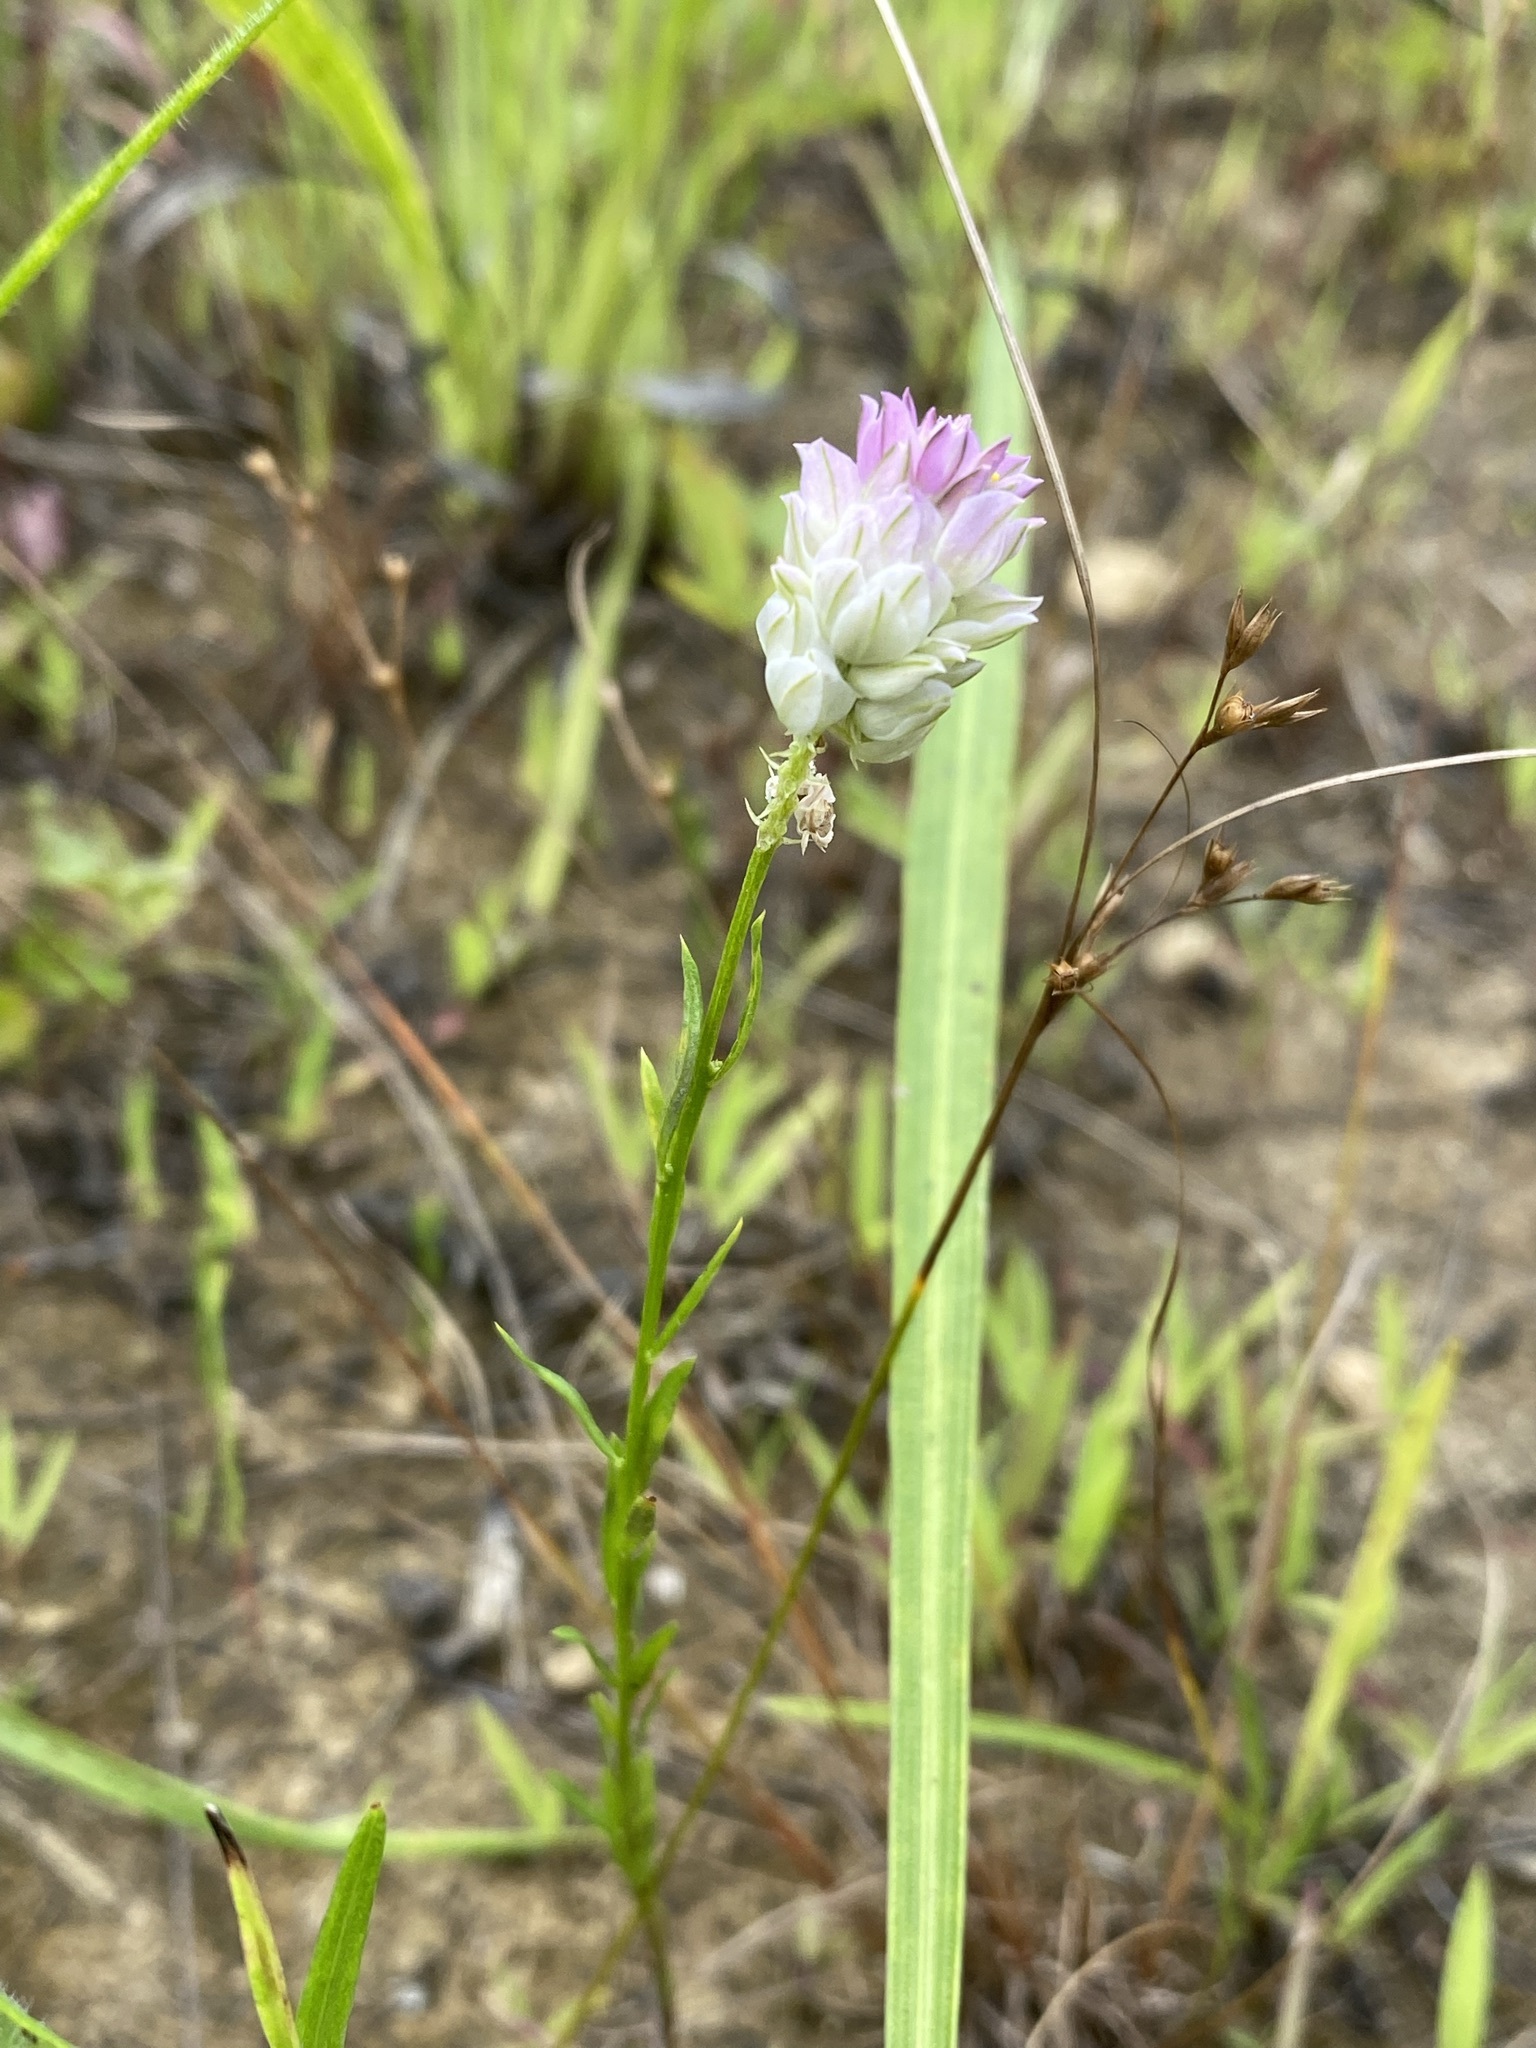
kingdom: Plantae
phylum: Tracheophyta
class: Magnoliopsida
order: Fabales
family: Polygalaceae
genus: Polygala
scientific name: Polygala sanguinea
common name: Blood milkwort
